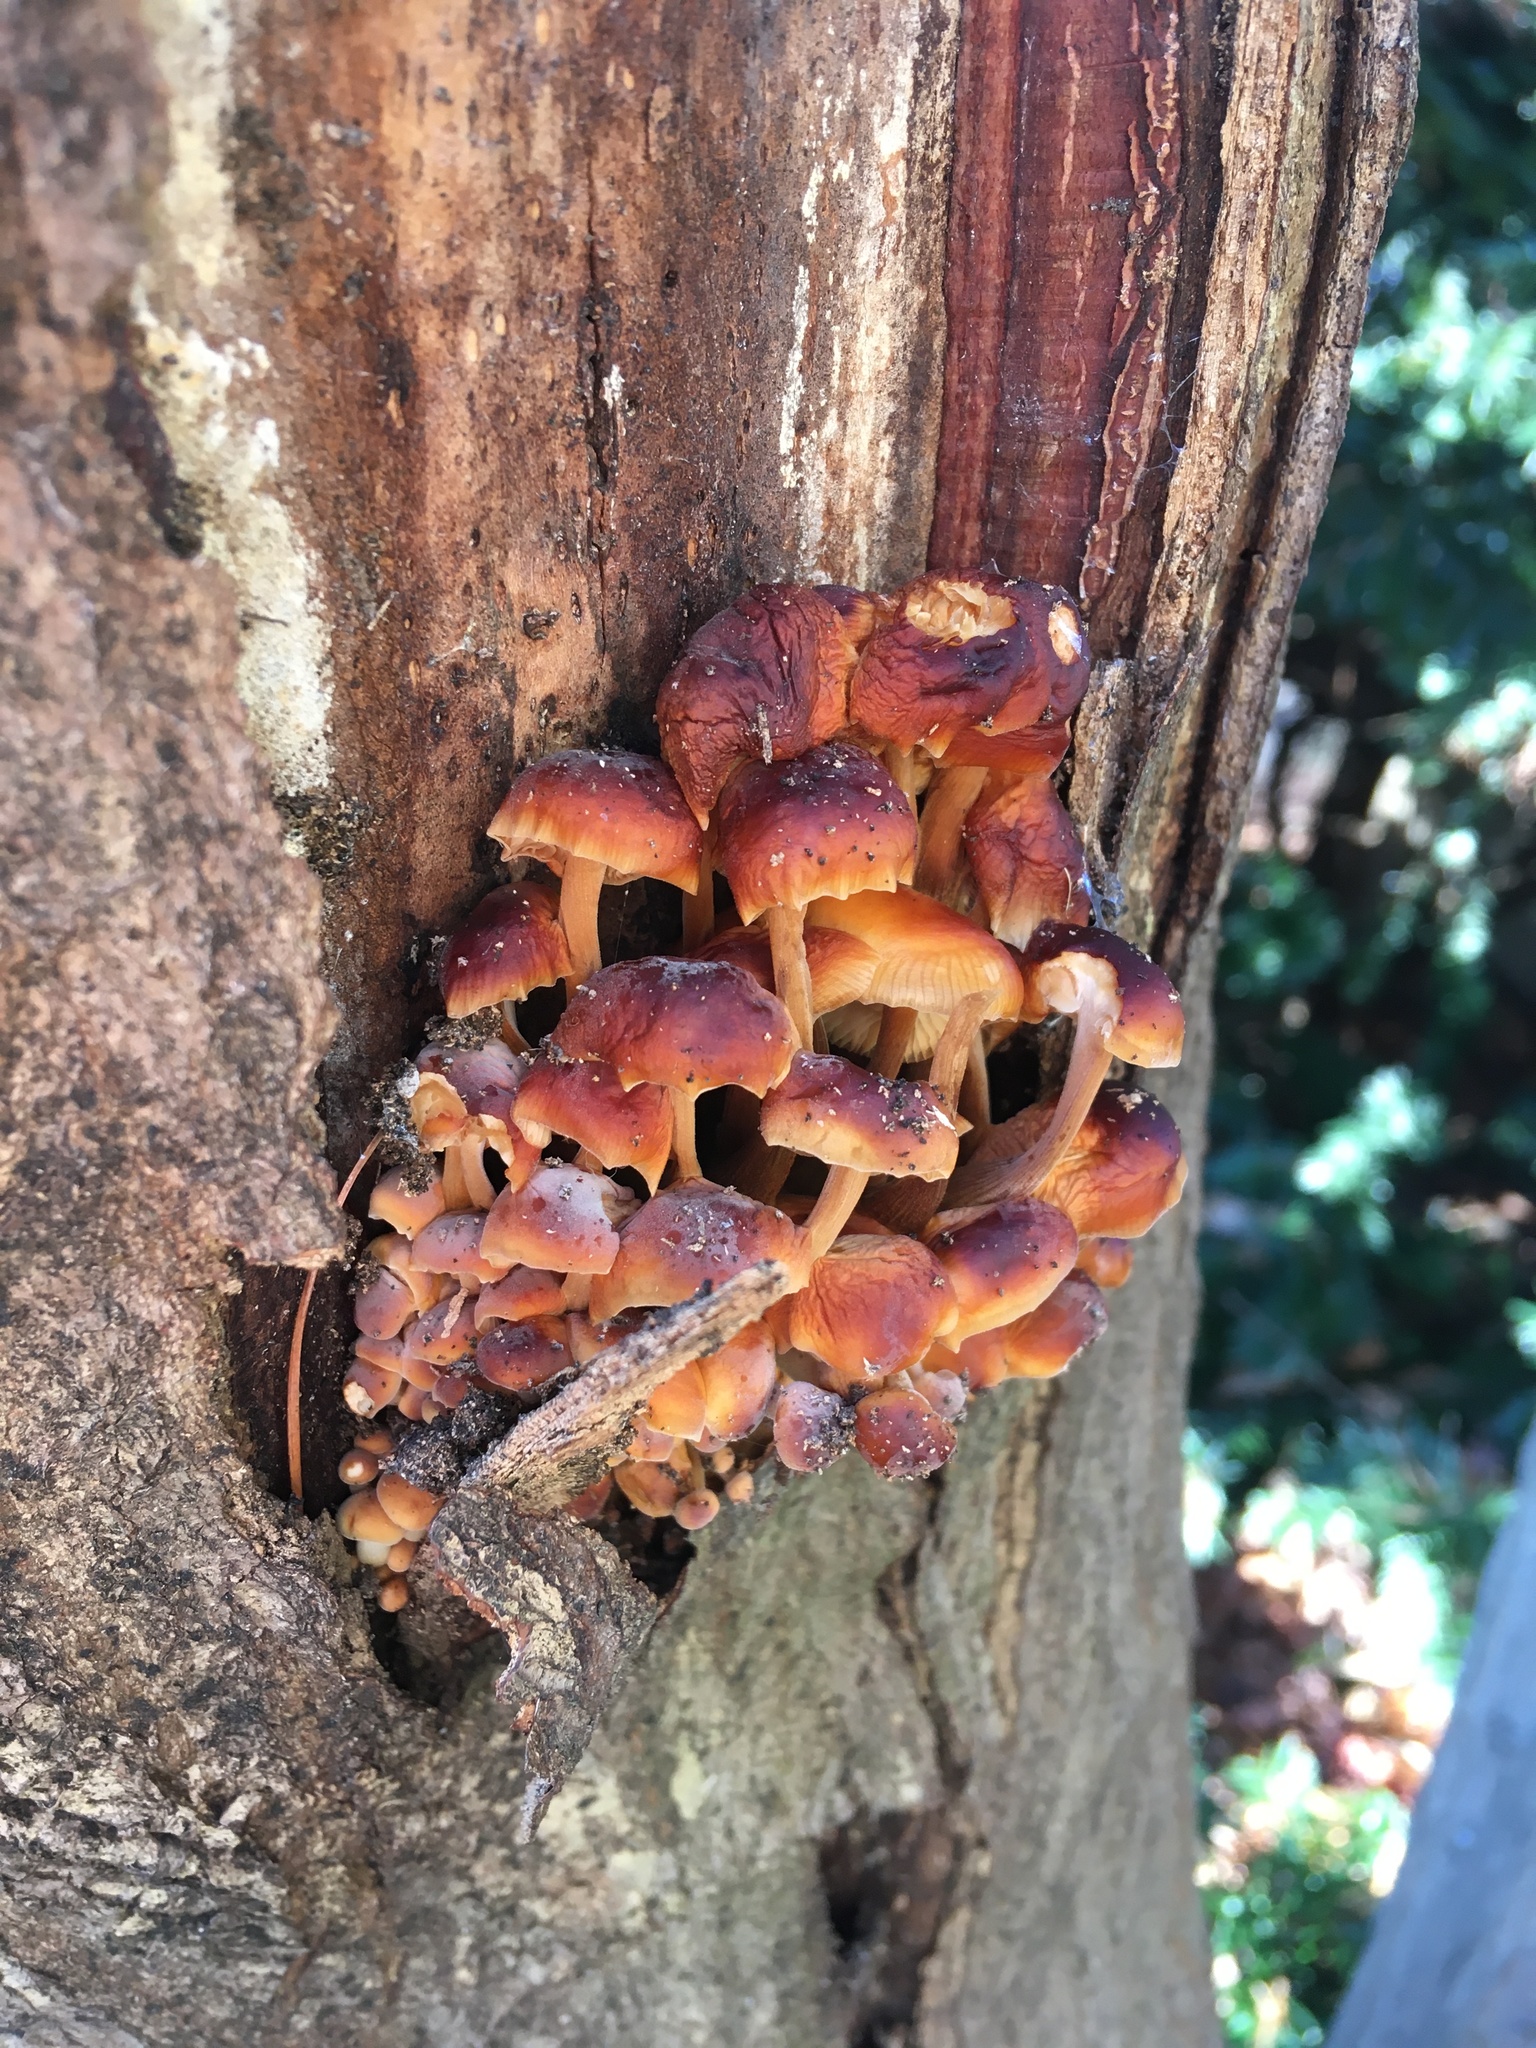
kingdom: Fungi
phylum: Basidiomycota
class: Agaricomycetes
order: Agaricales
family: Physalacriaceae
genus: Flammulina
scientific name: Flammulina velutipes
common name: Velvet shank
